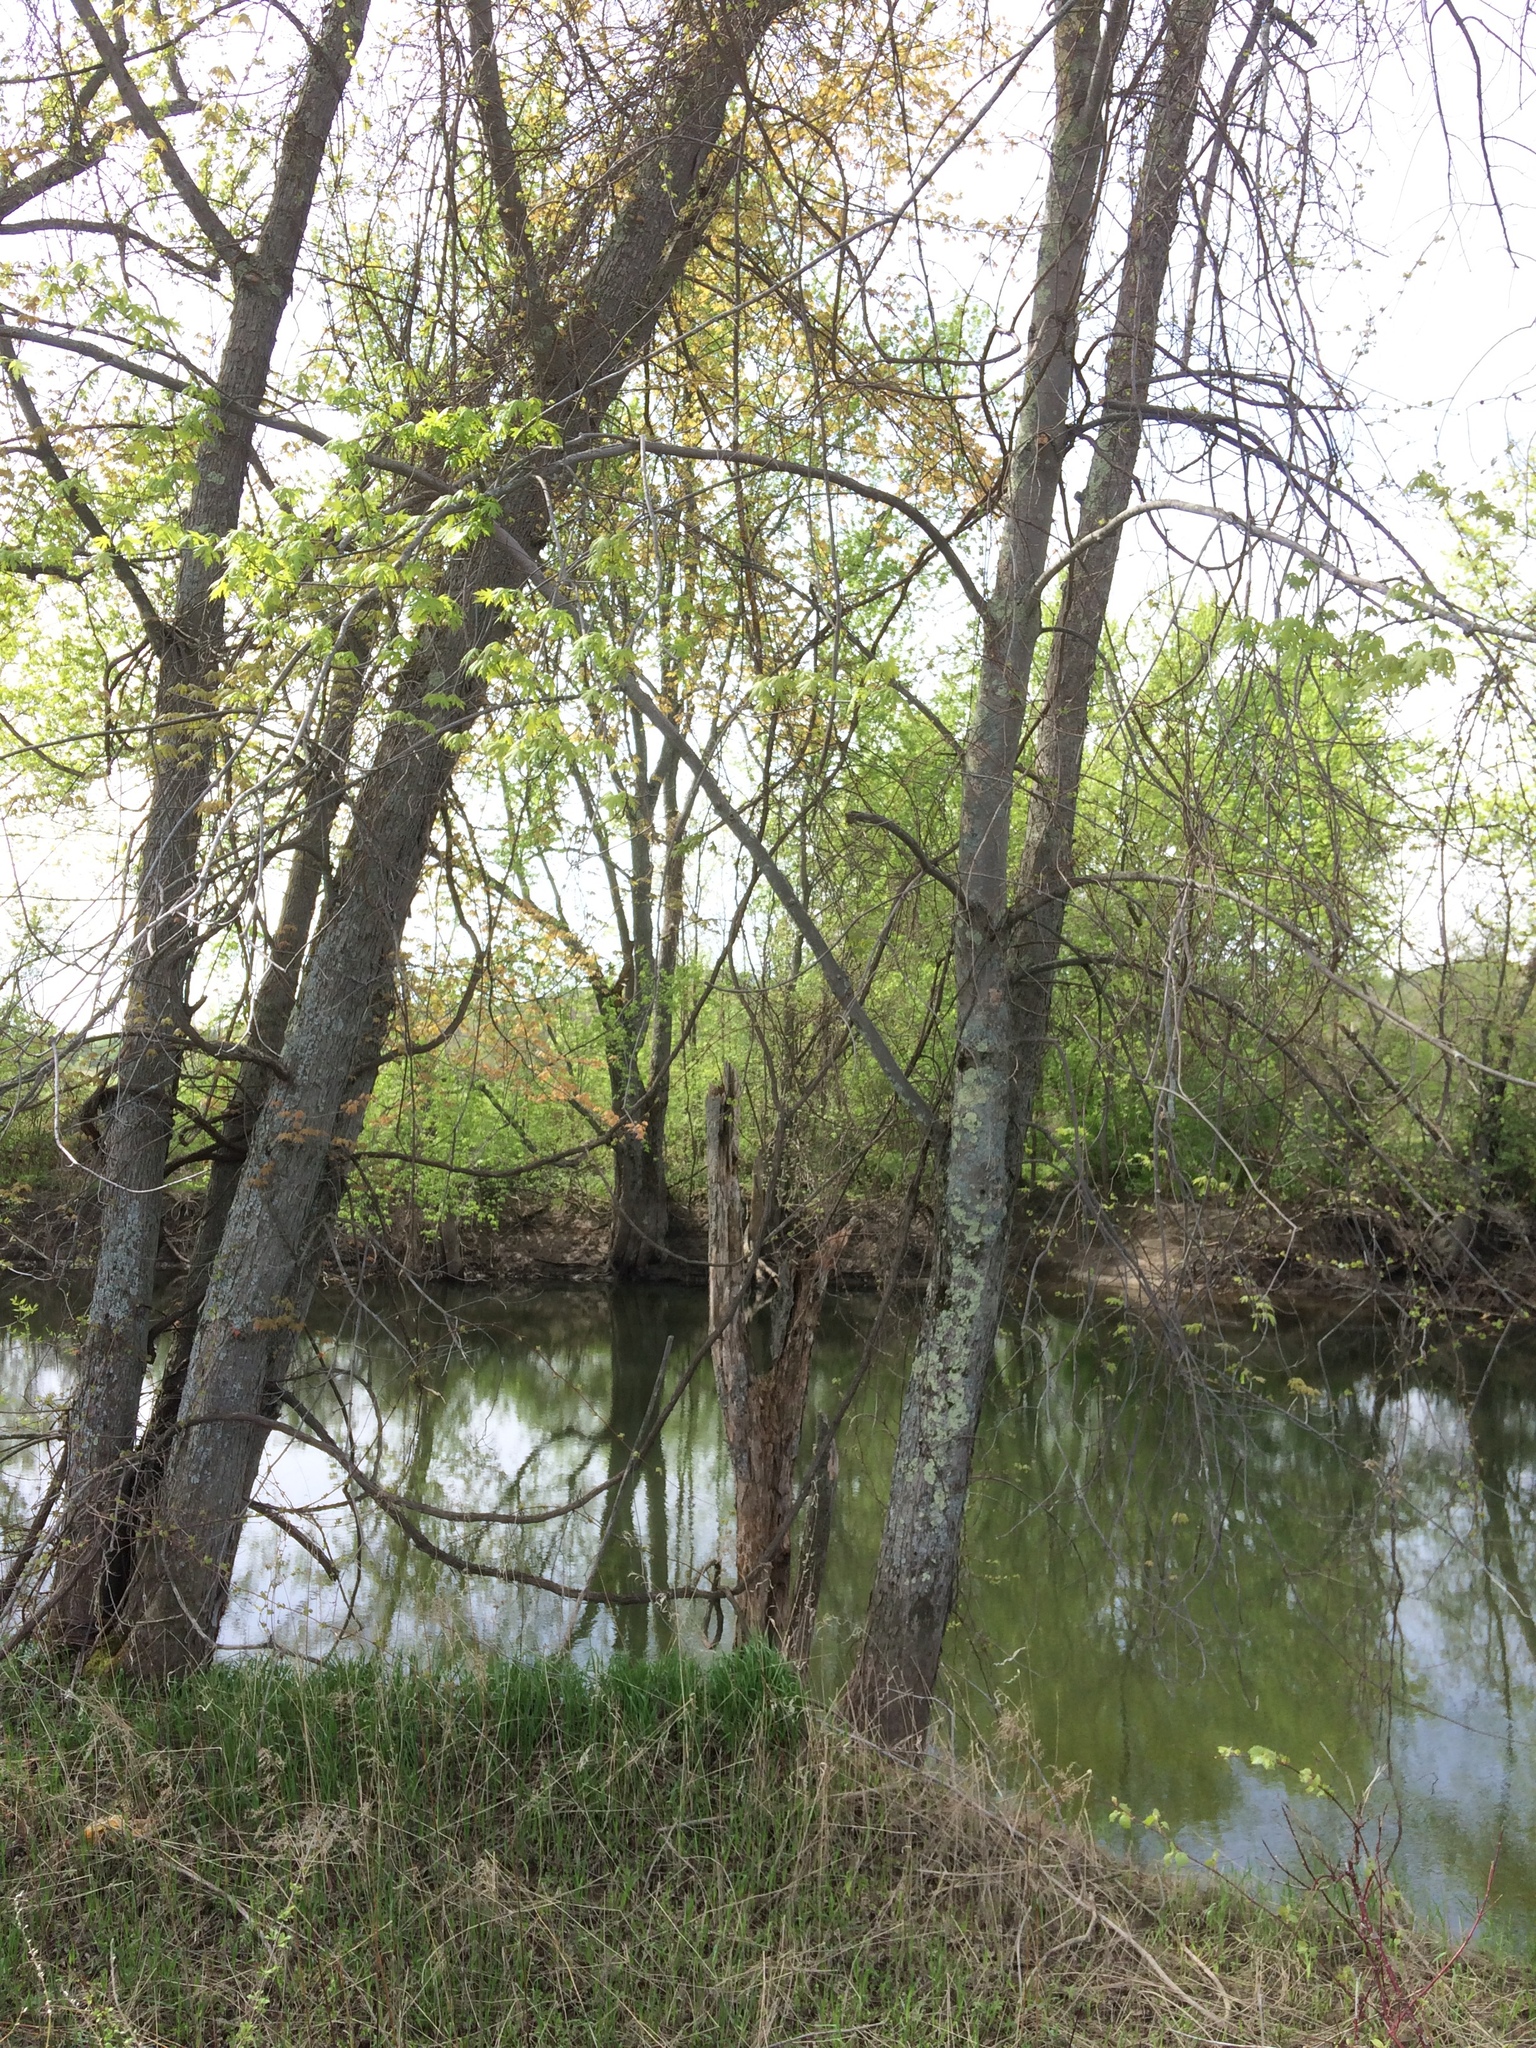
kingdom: Plantae
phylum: Tracheophyta
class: Magnoliopsida
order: Sapindales
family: Sapindaceae
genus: Acer
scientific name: Acer saccharinum
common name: Silver maple
